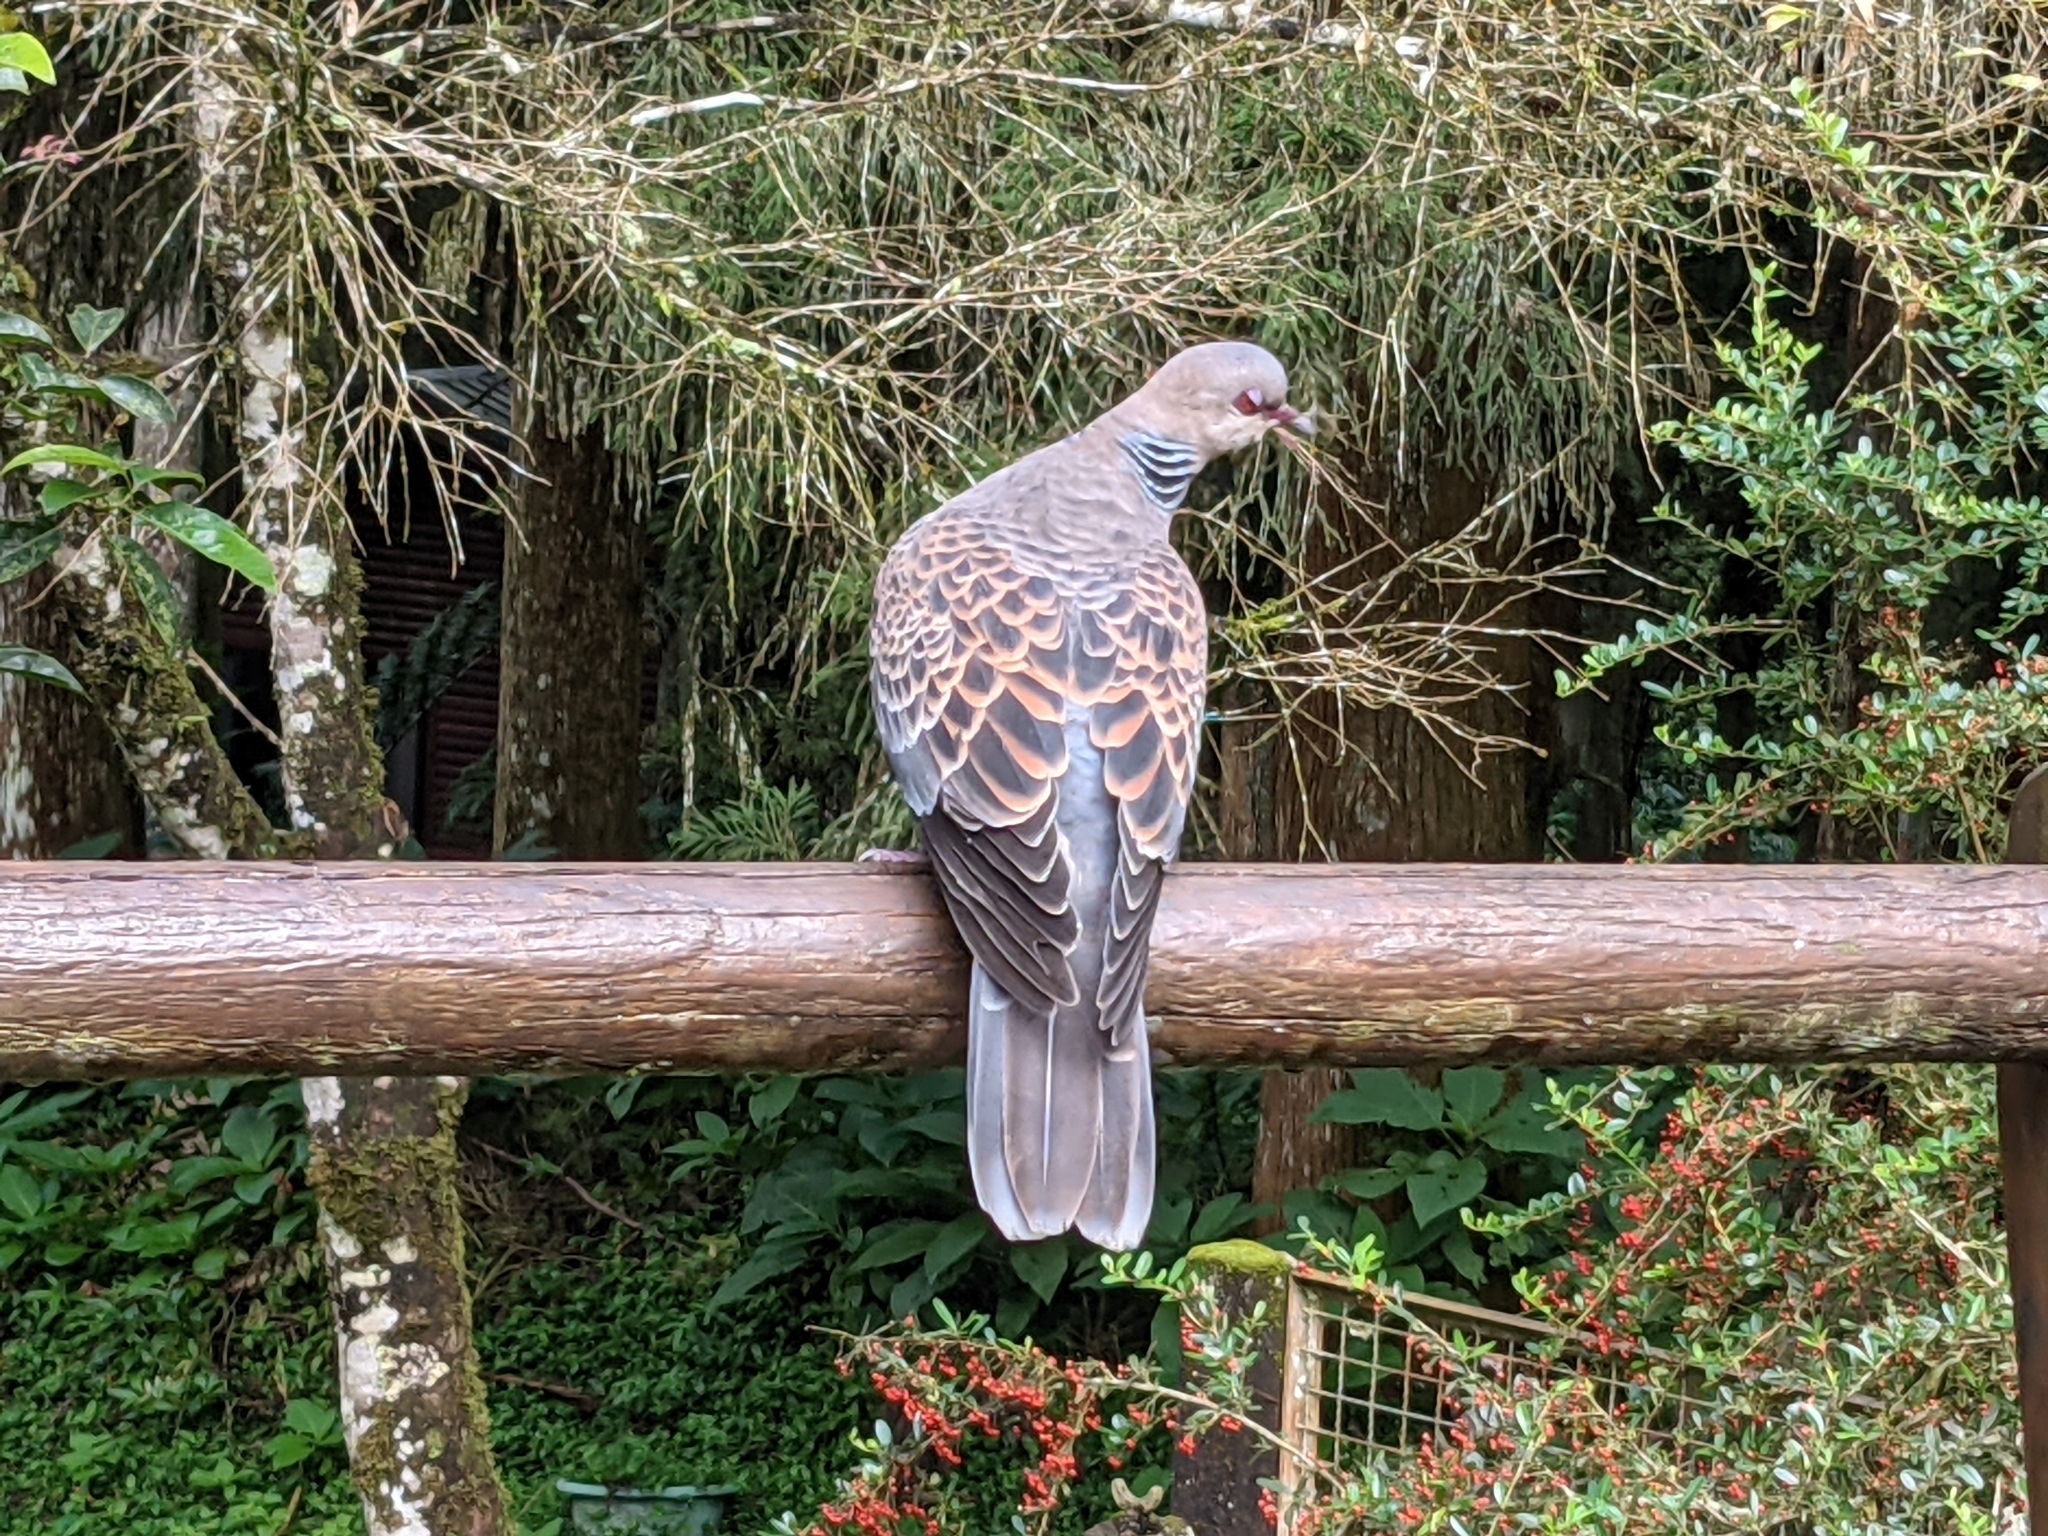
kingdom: Animalia
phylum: Chordata
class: Aves
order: Columbiformes
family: Columbidae
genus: Streptopelia
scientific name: Streptopelia orientalis
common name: Oriental turtle dove
